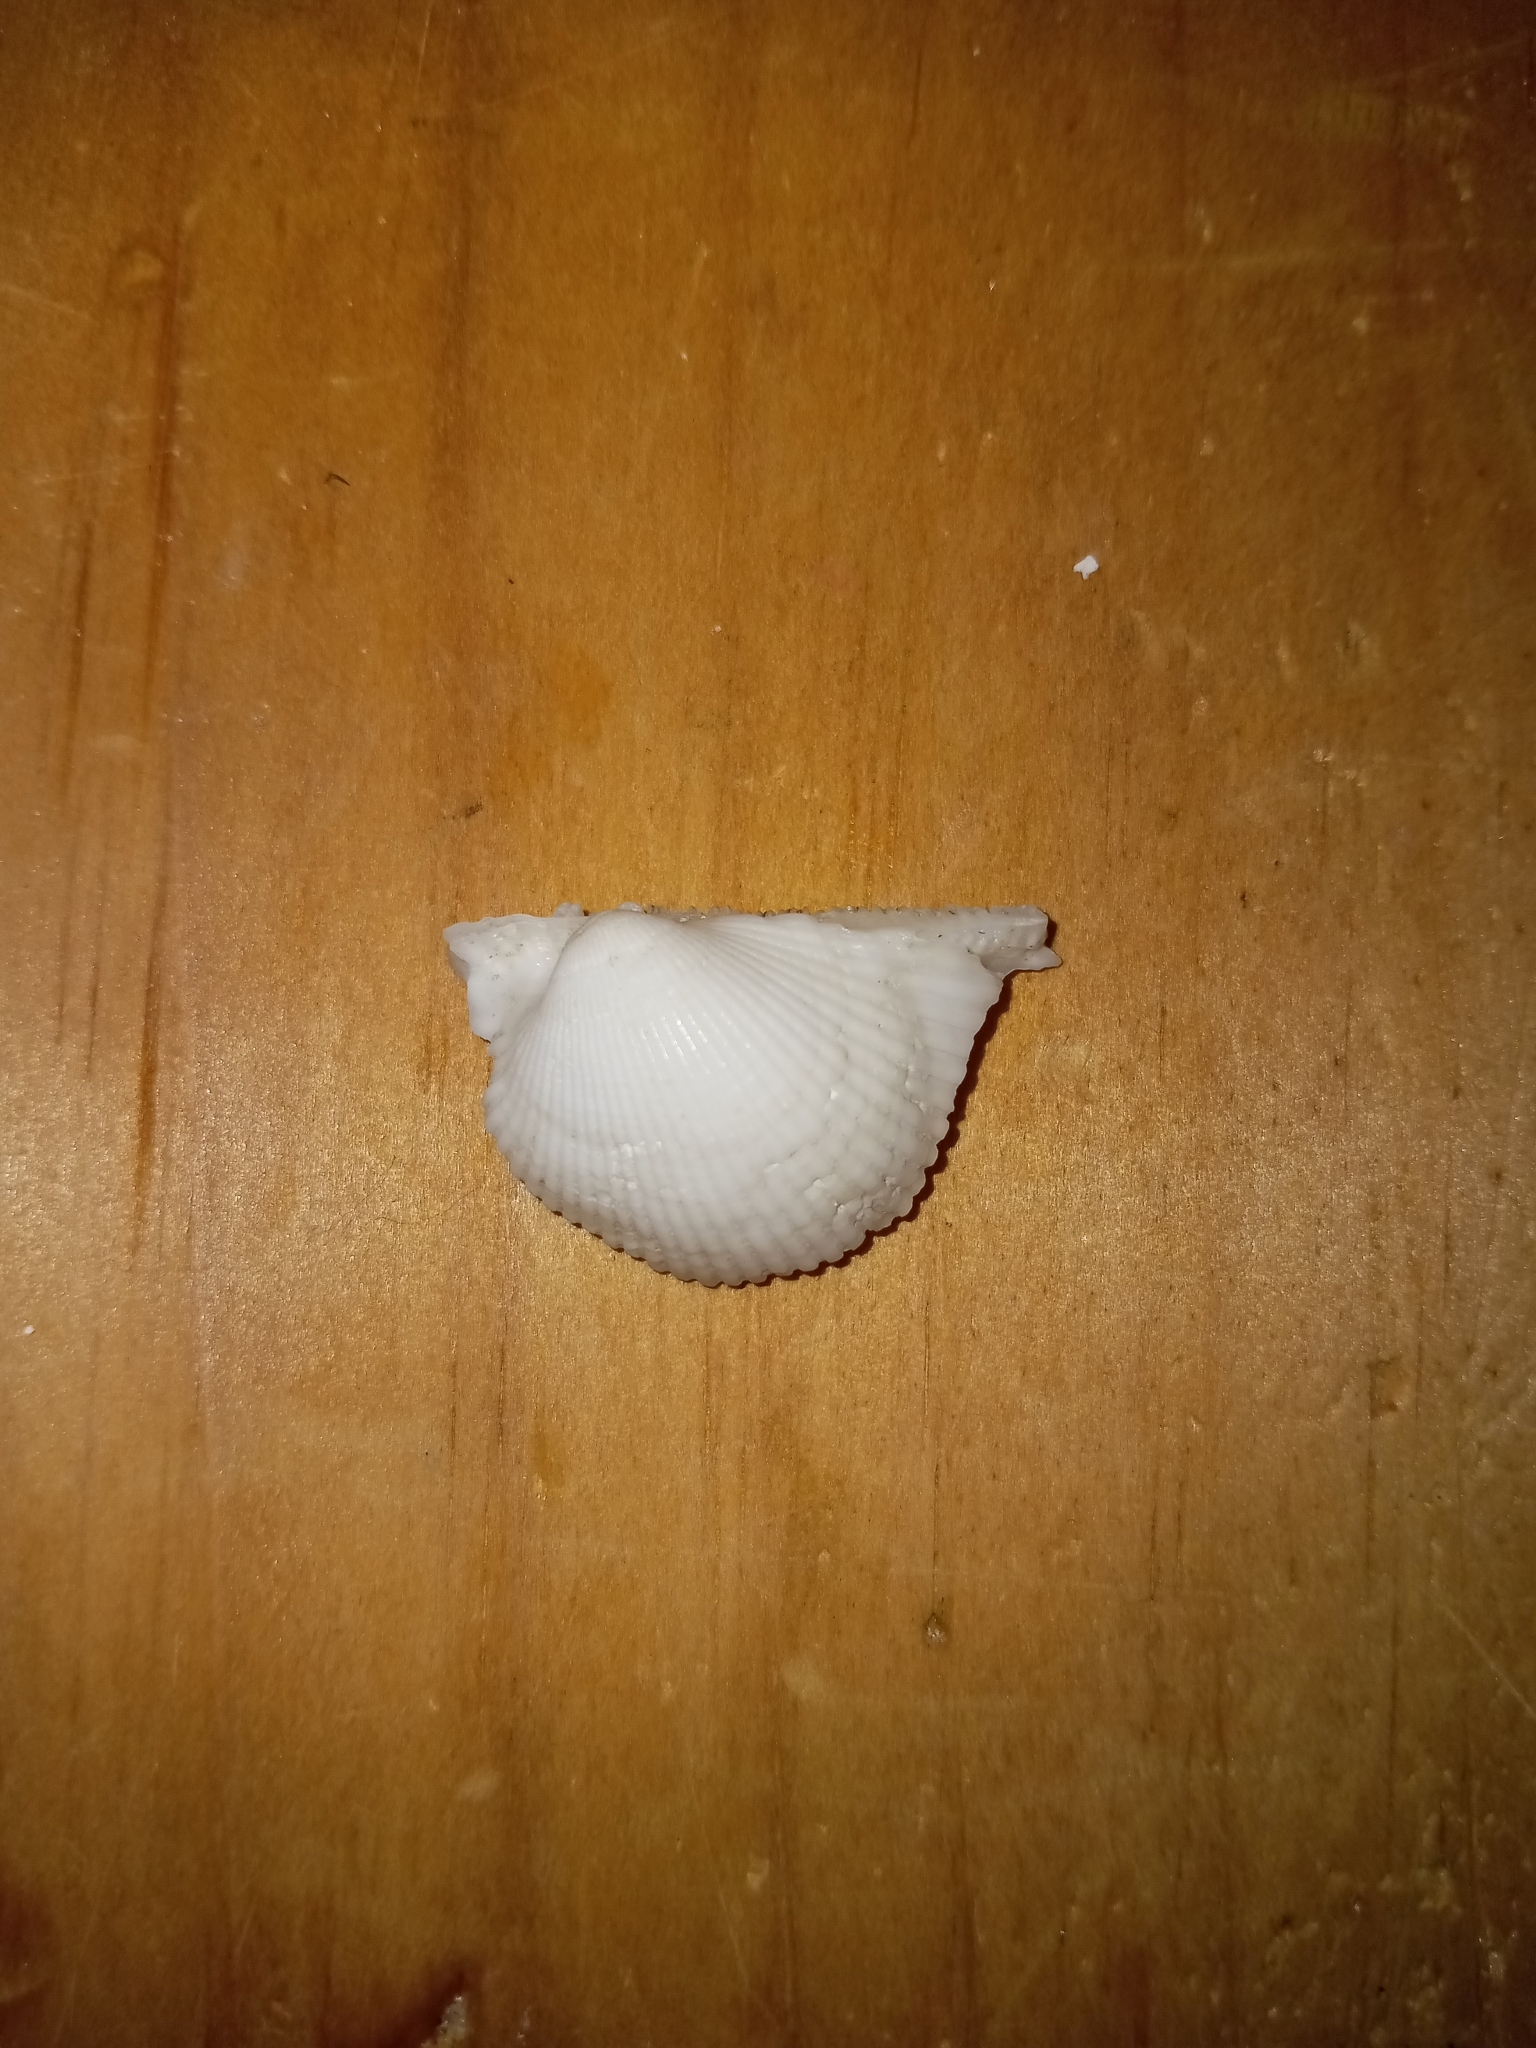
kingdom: Animalia
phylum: Mollusca
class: Bivalvia
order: Arcida
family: Arcidae
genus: Lunarca
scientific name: Lunarca ovalis
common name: Blood ark
